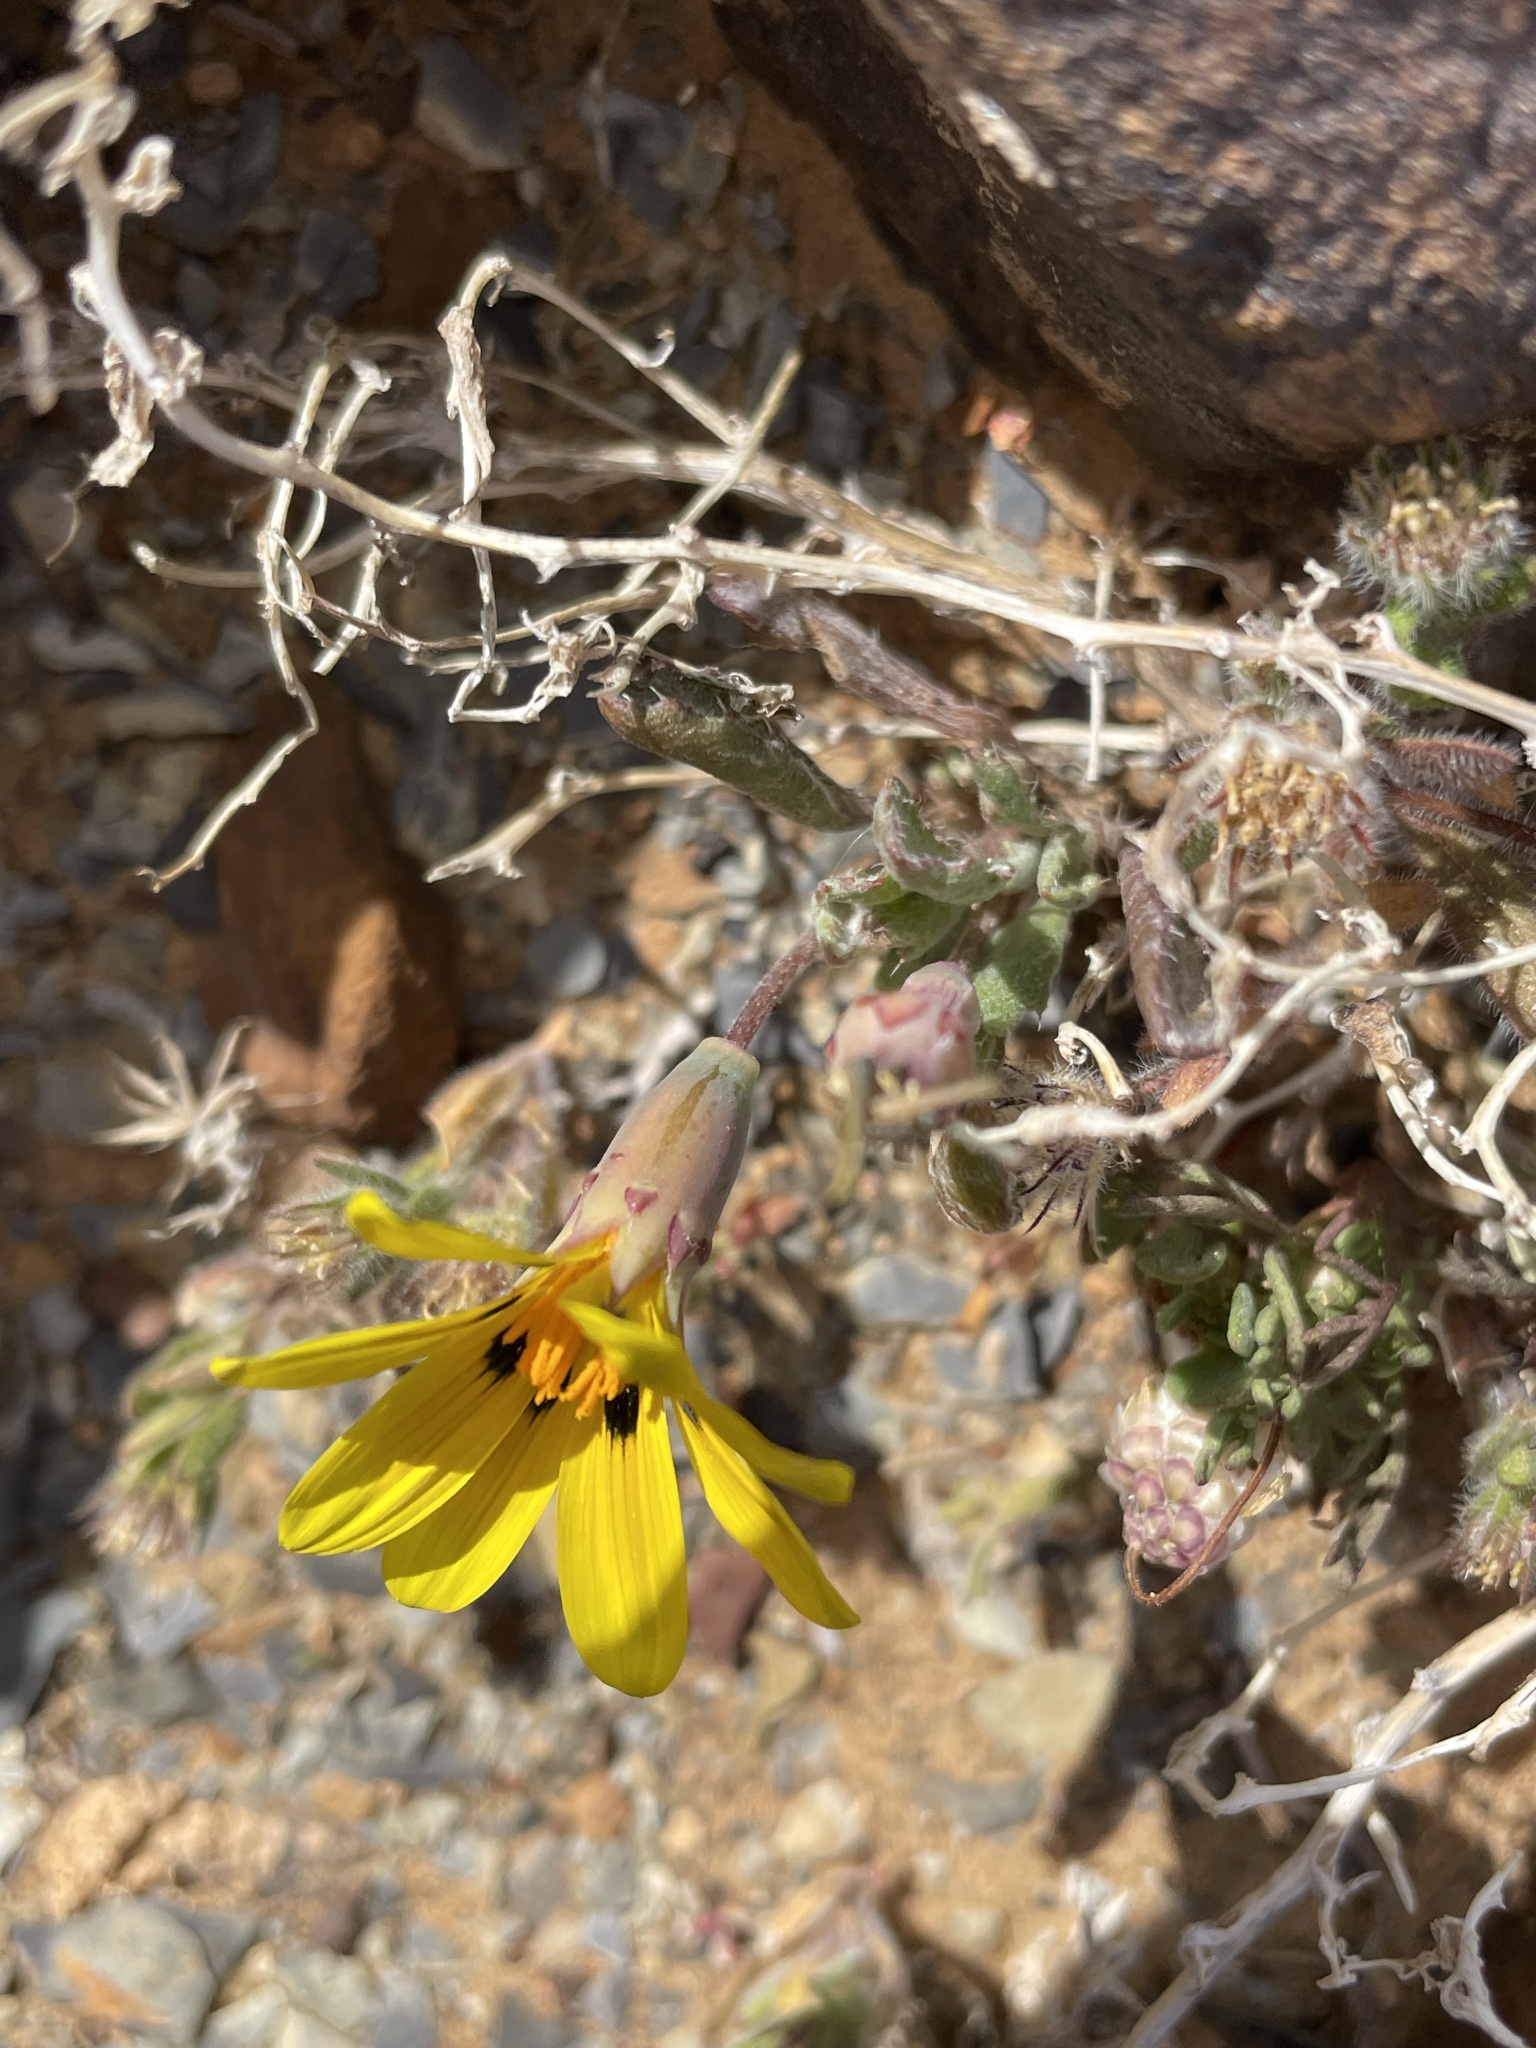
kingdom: Plantae
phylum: Tracheophyta
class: Magnoliopsida
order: Asterales
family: Asteraceae
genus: Gazania
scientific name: Gazania lichtensteinii
